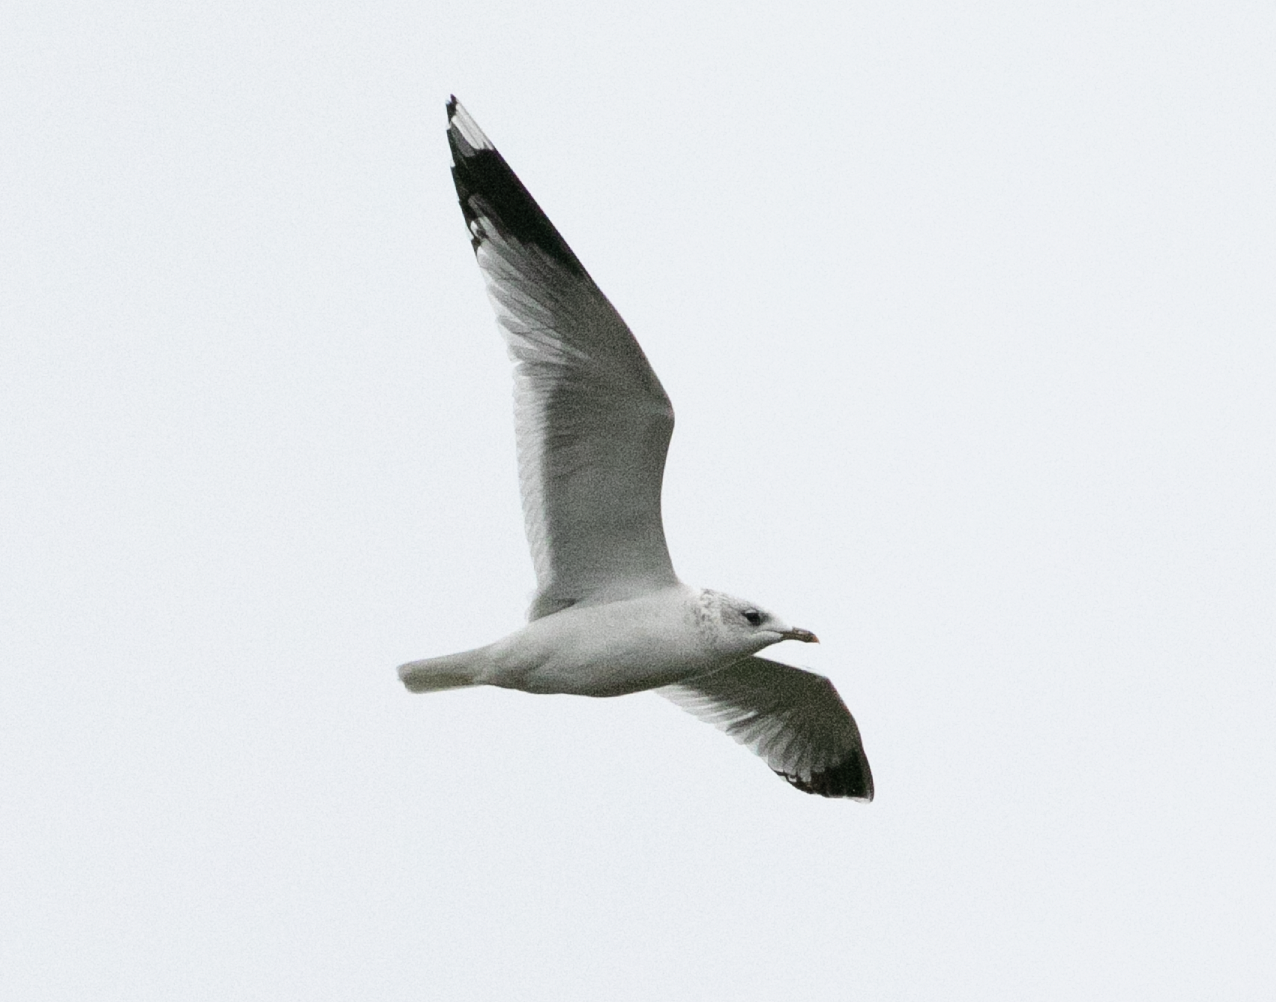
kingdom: Animalia
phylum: Chordata
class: Aves
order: Charadriiformes
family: Laridae
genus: Larus
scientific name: Larus canus
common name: Mew gull
